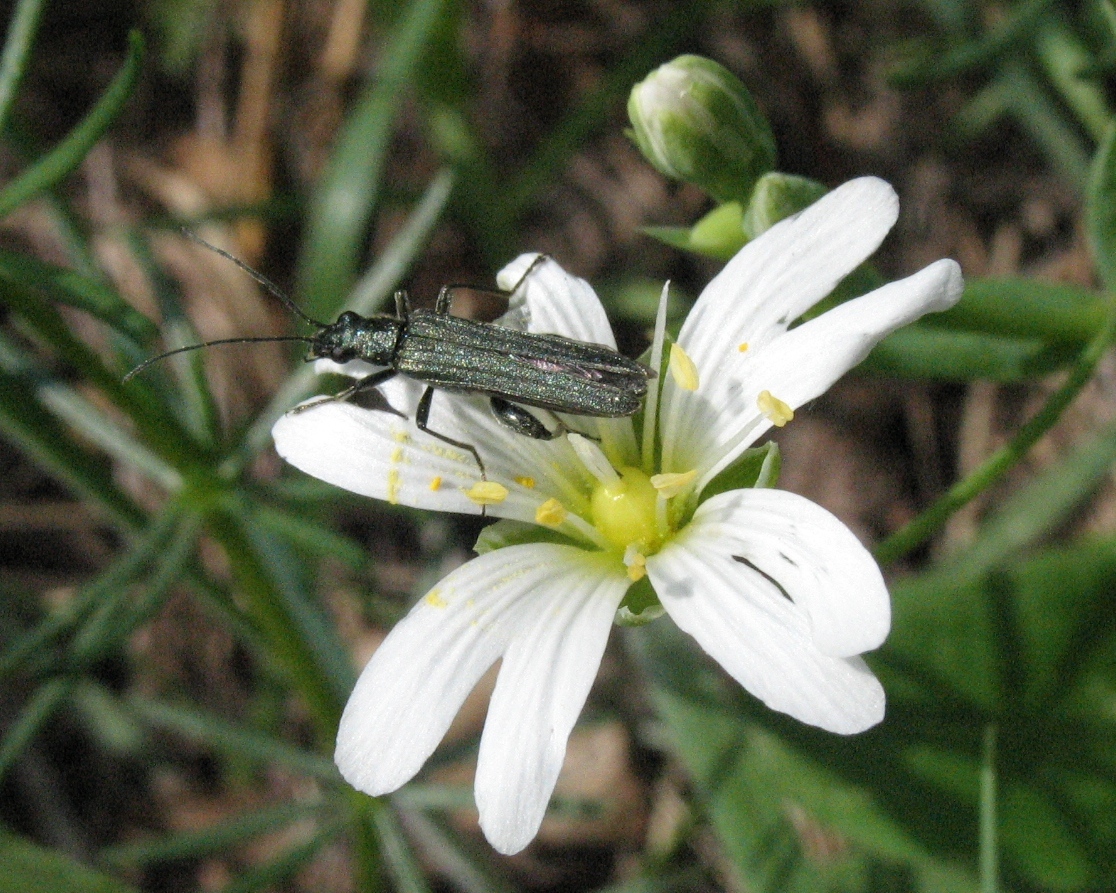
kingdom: Plantae
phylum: Tracheophyta
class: Magnoliopsida
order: Caryophyllales
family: Caryophyllaceae
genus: Rabelera
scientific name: Rabelera holostea
